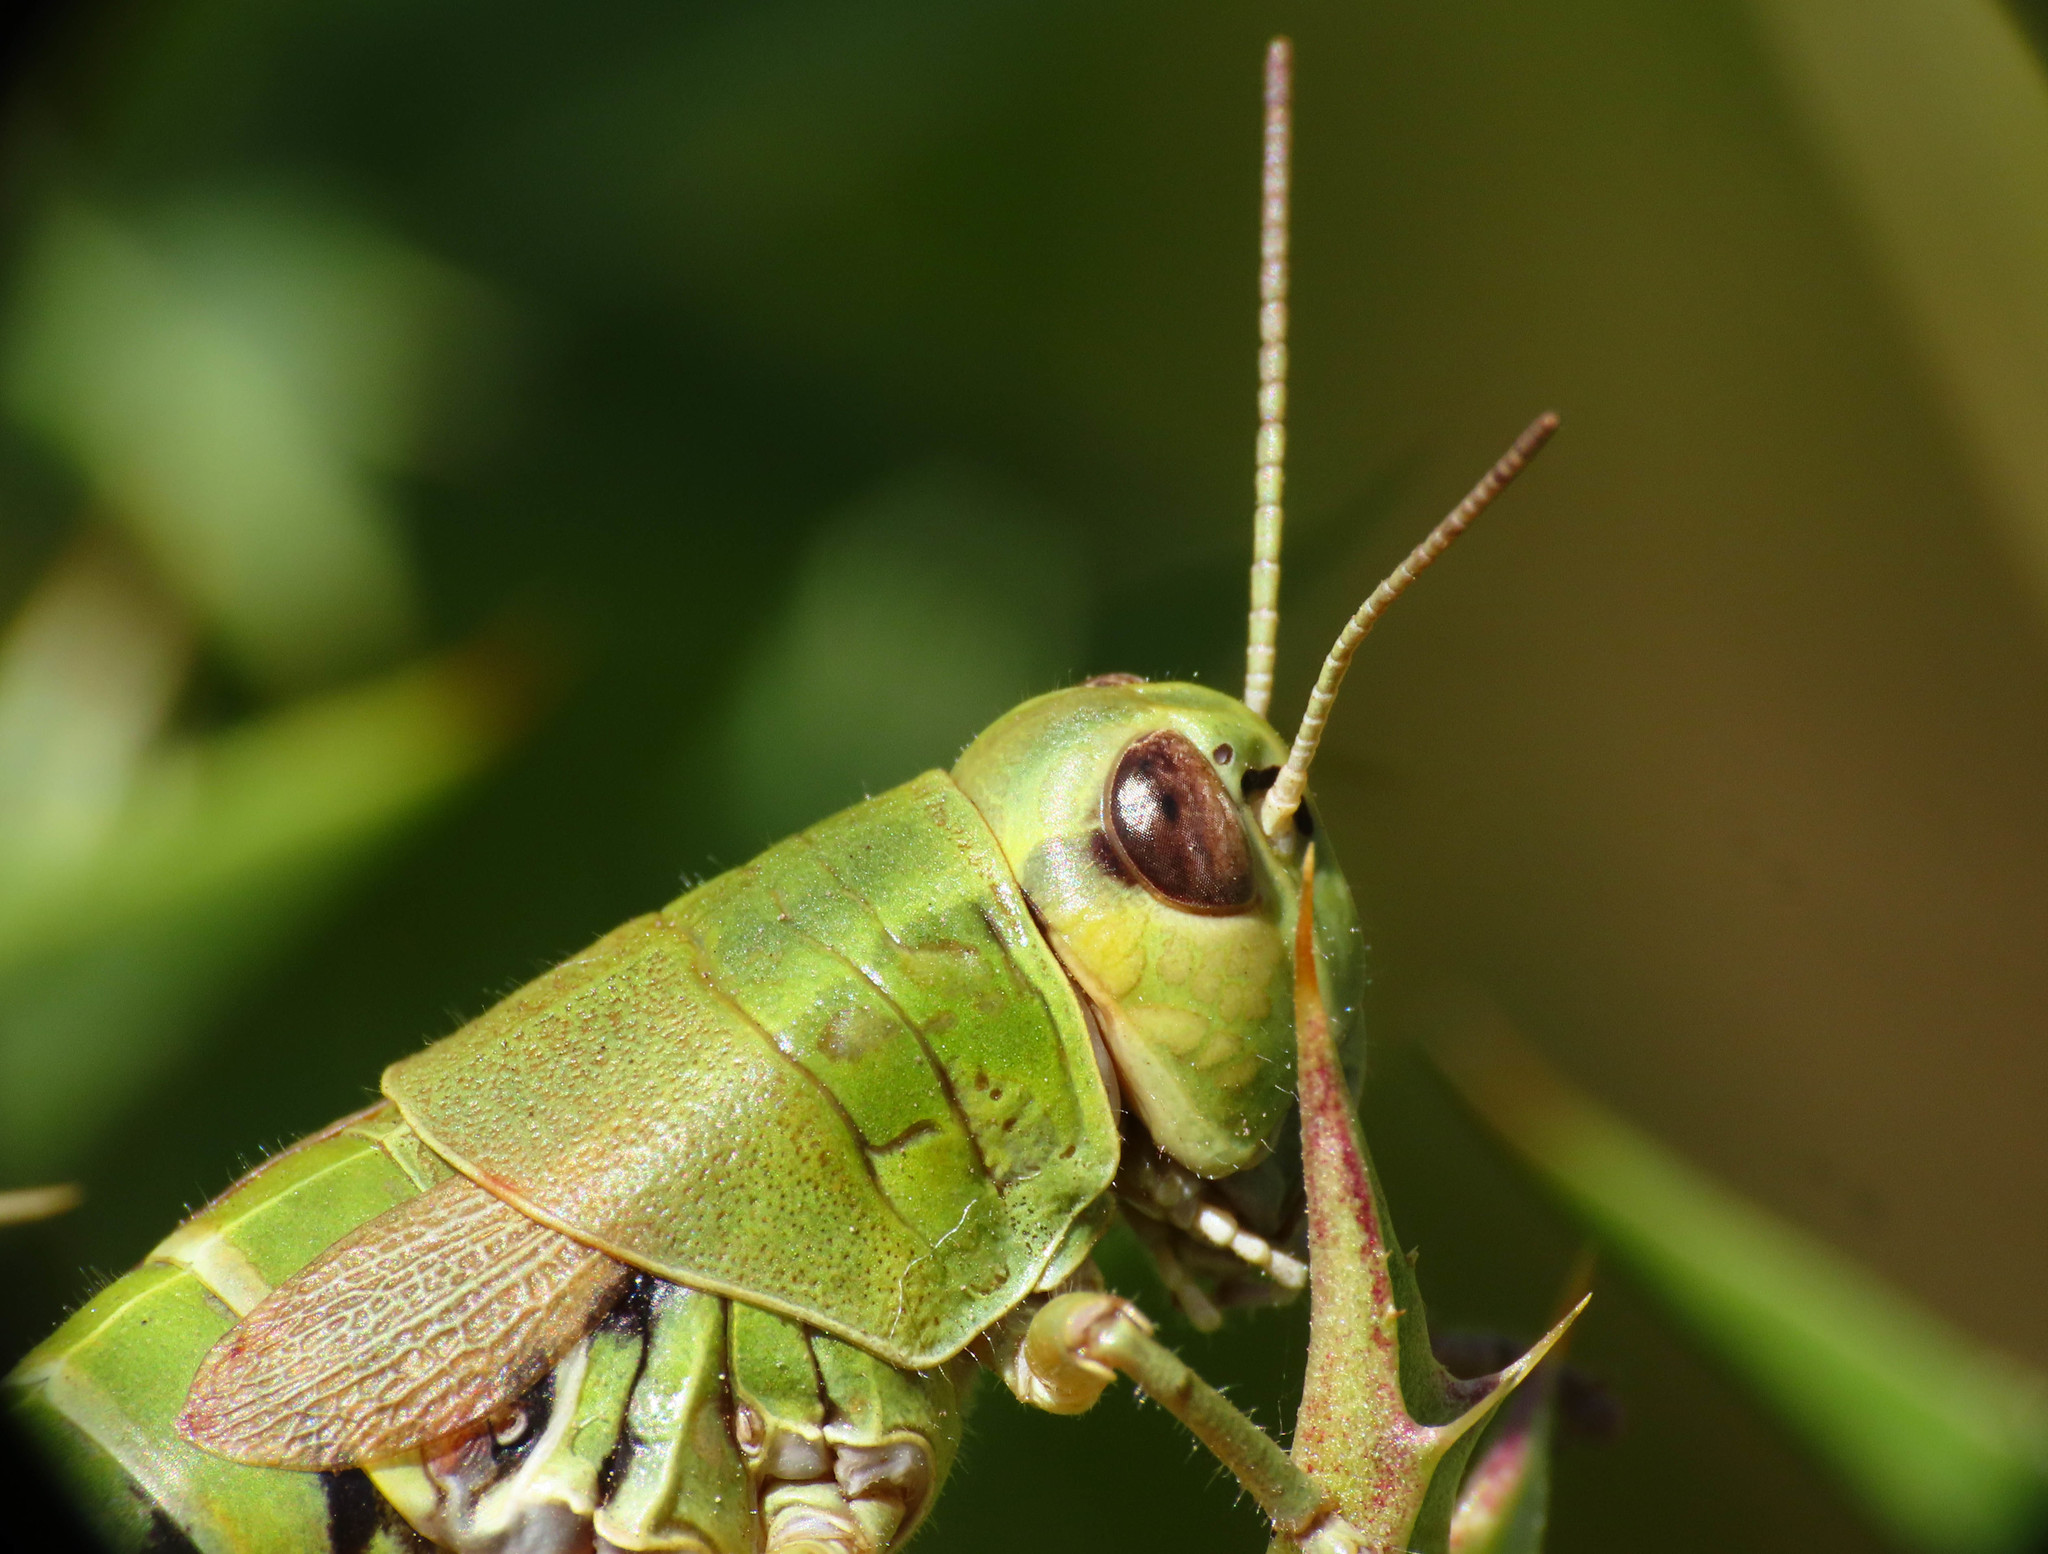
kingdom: Animalia
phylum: Arthropoda
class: Insecta
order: Orthoptera
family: Acrididae
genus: Podisma
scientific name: Podisma silvestrii
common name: Sibillini mountain grasshopper
